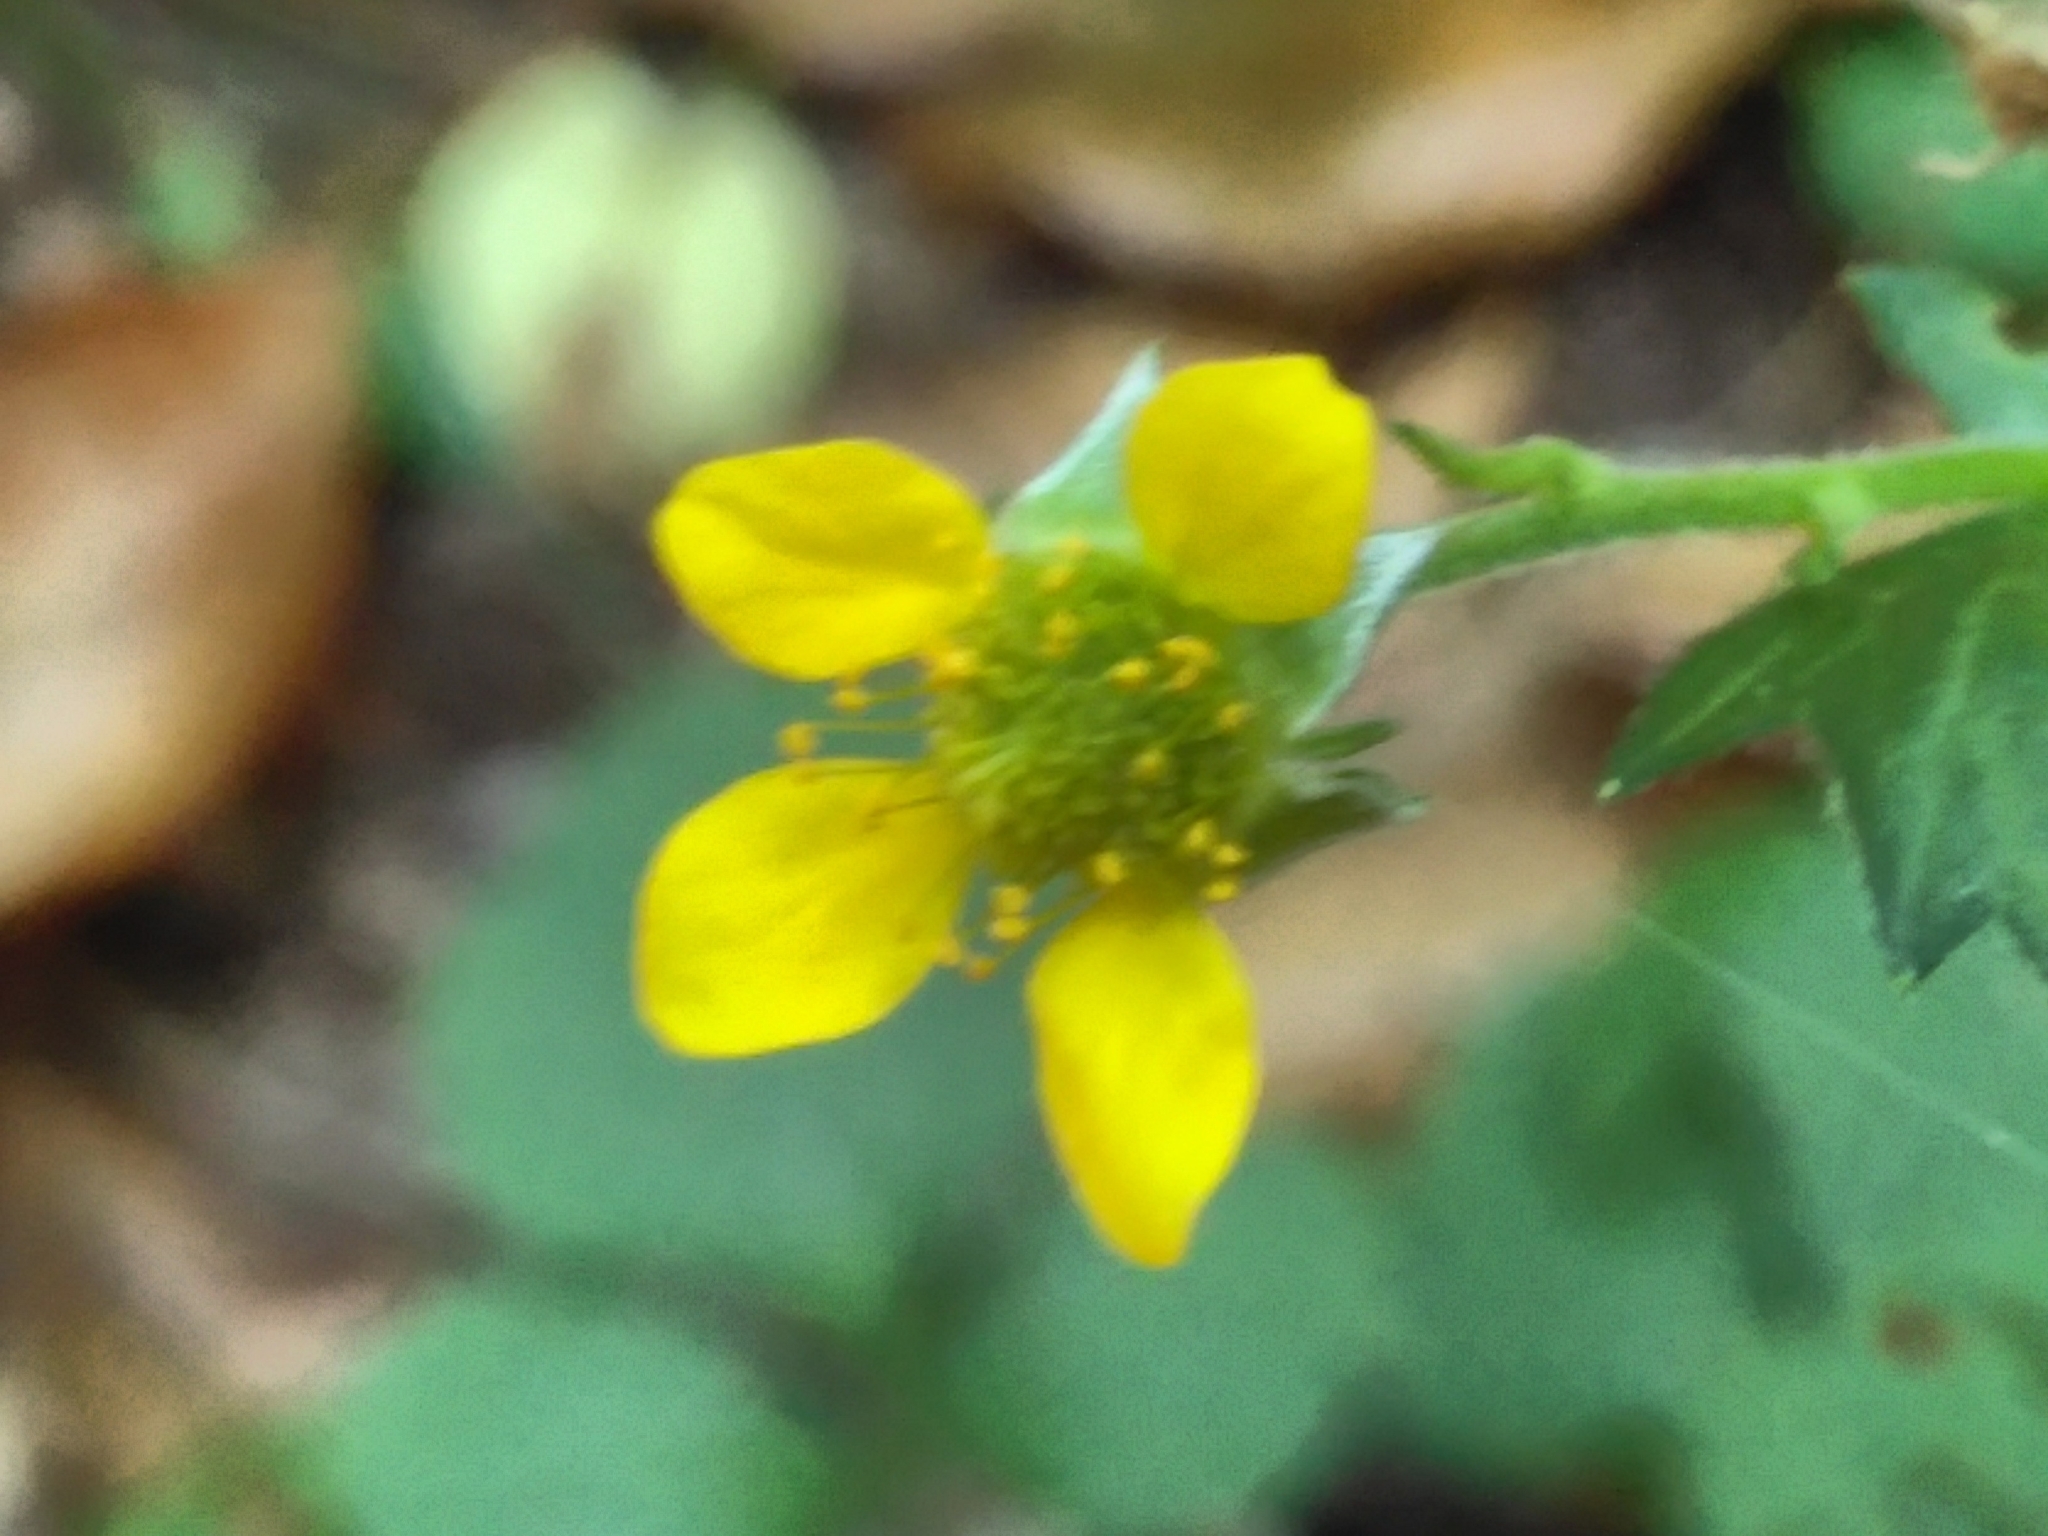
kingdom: Plantae
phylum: Tracheophyta
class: Magnoliopsida
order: Rosales
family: Rosaceae
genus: Geum
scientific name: Geum urbanum
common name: Wood avens
